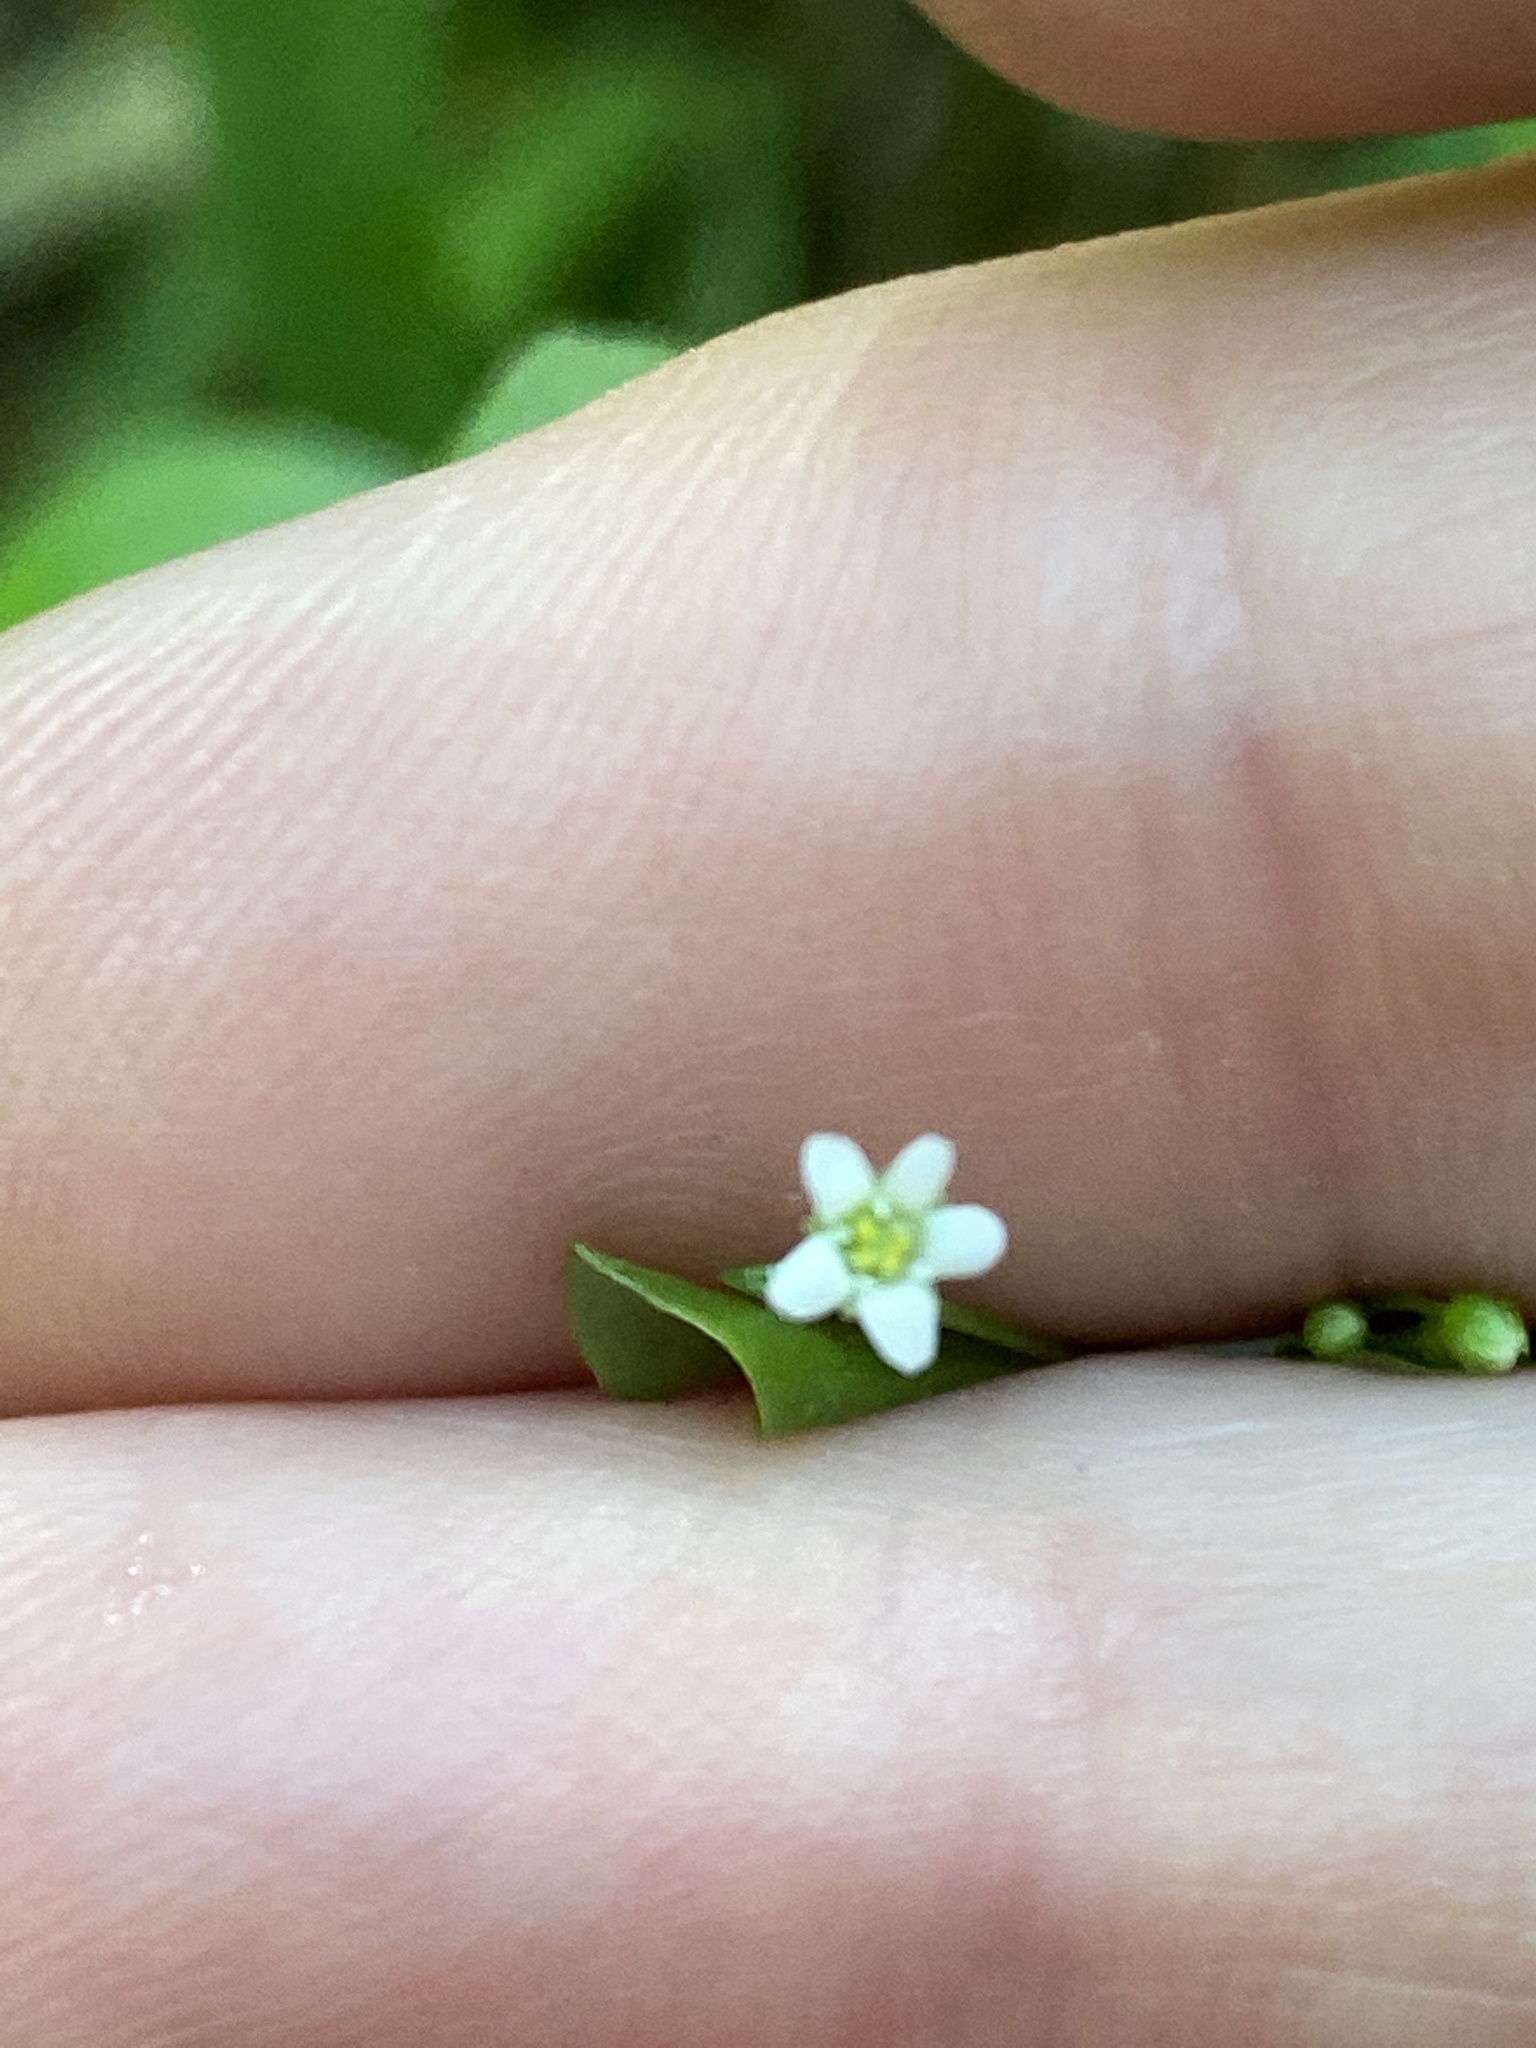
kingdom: Plantae
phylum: Tracheophyta
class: Magnoliopsida
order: Ericales
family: Primulaceae
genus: Samolus
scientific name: Samolus parviflorus
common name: False water pimpernel
